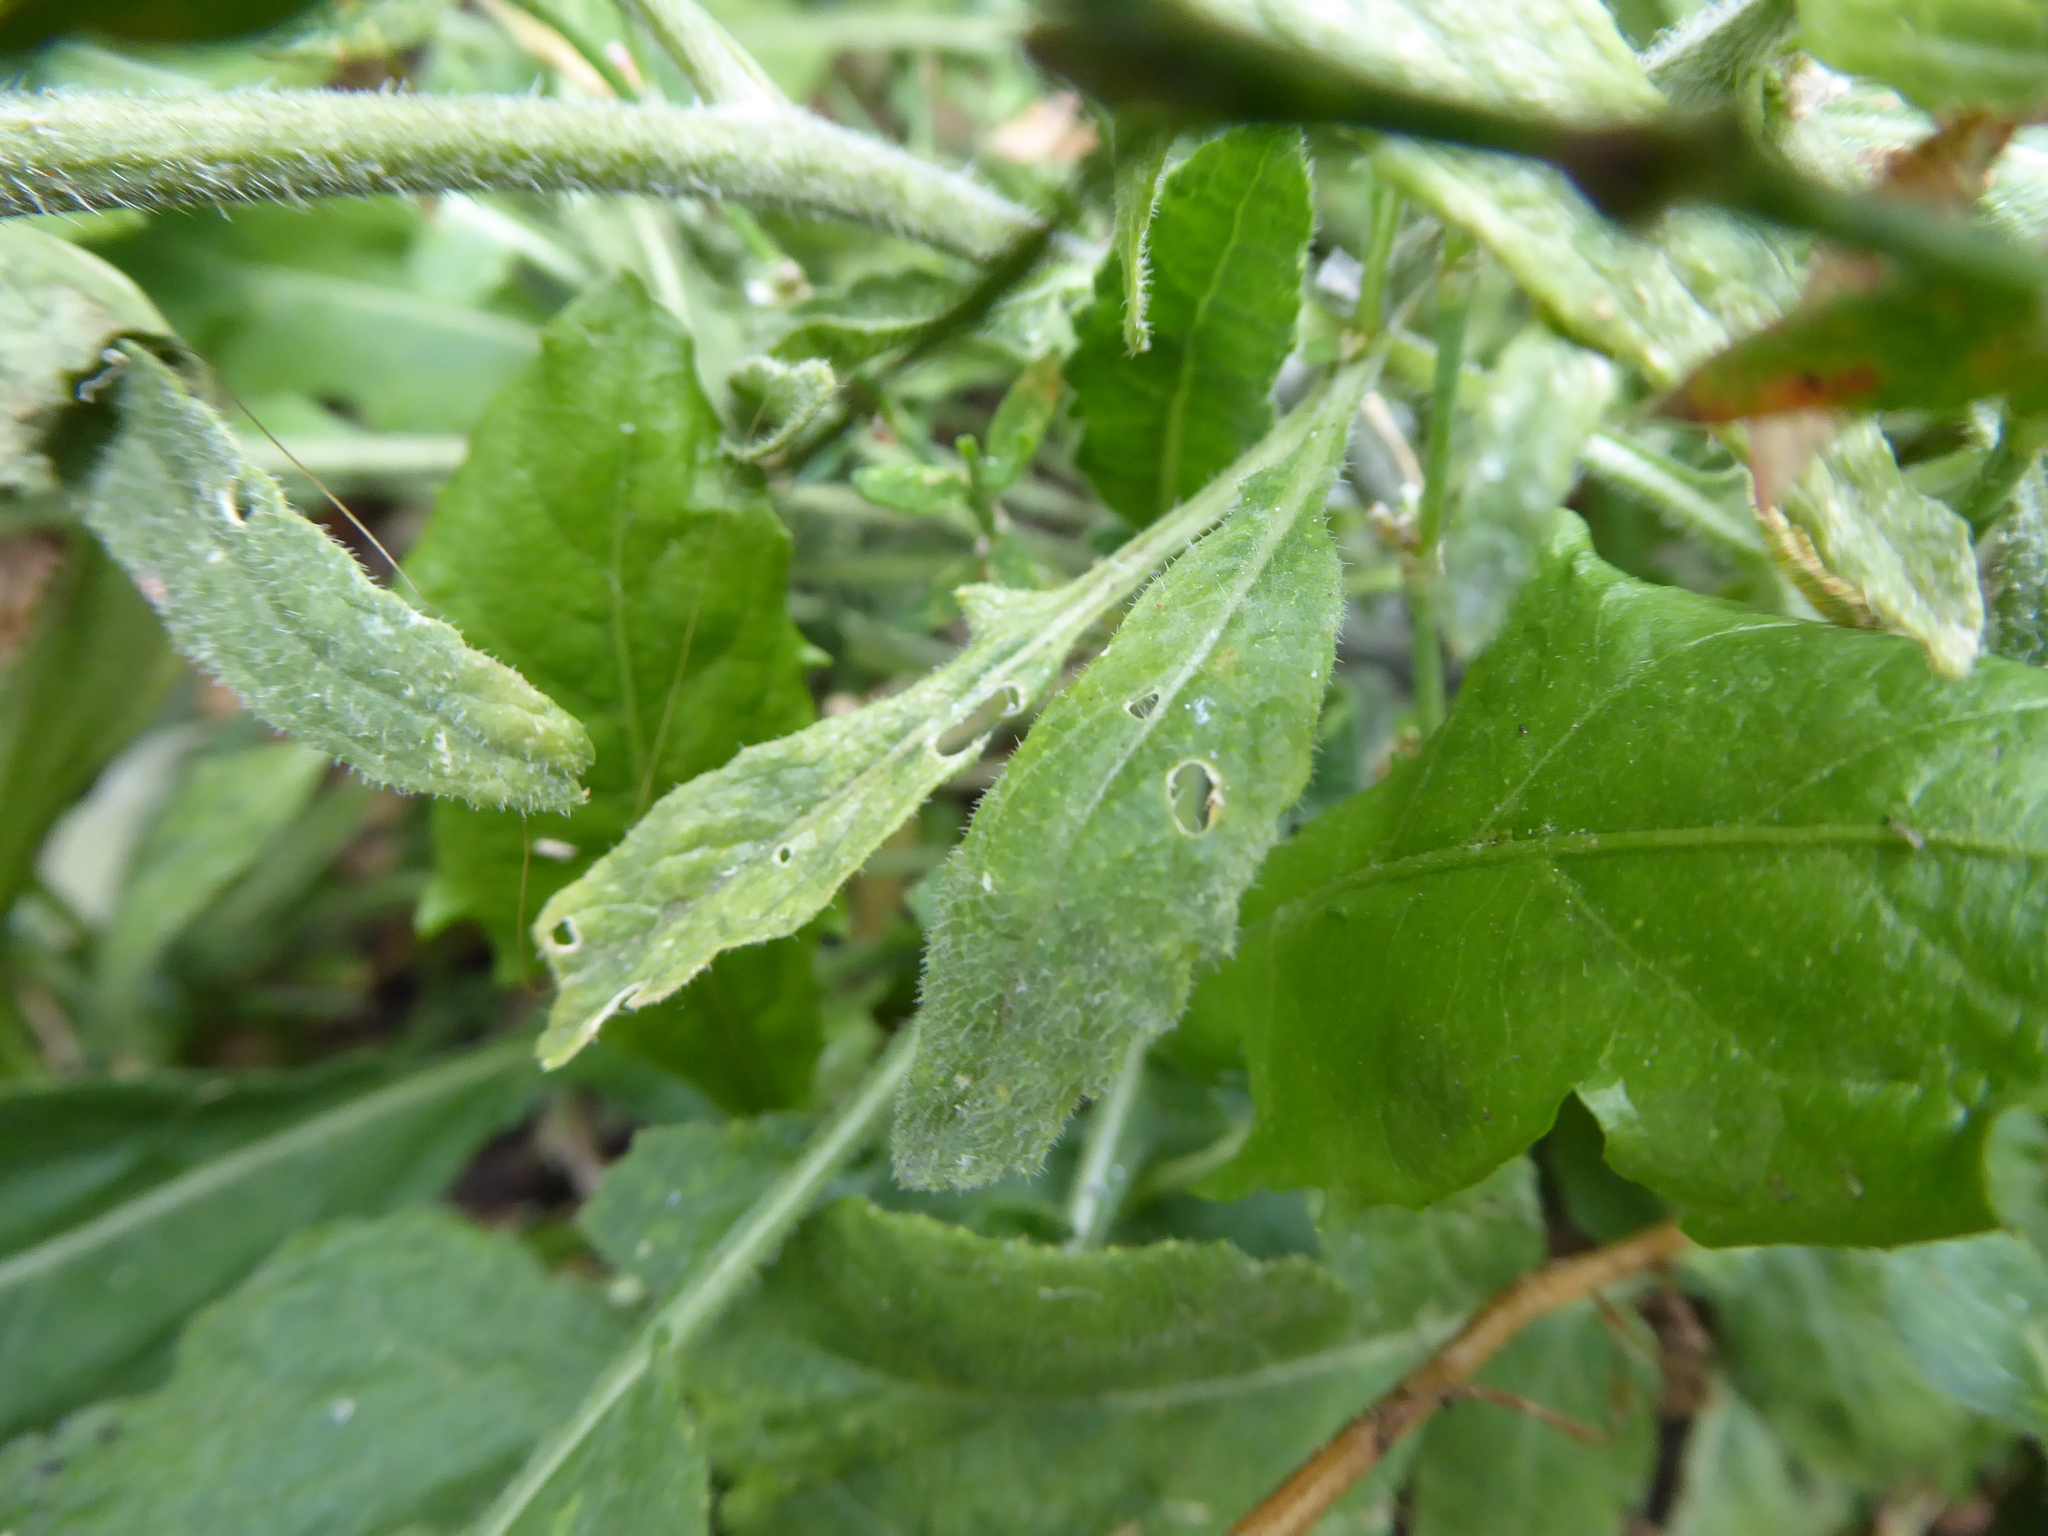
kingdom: Plantae
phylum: Tracheophyta
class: Magnoliopsida
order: Brassicales
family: Brassicaceae
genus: Hirschfeldia
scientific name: Hirschfeldia incana
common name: Hoary mustard
